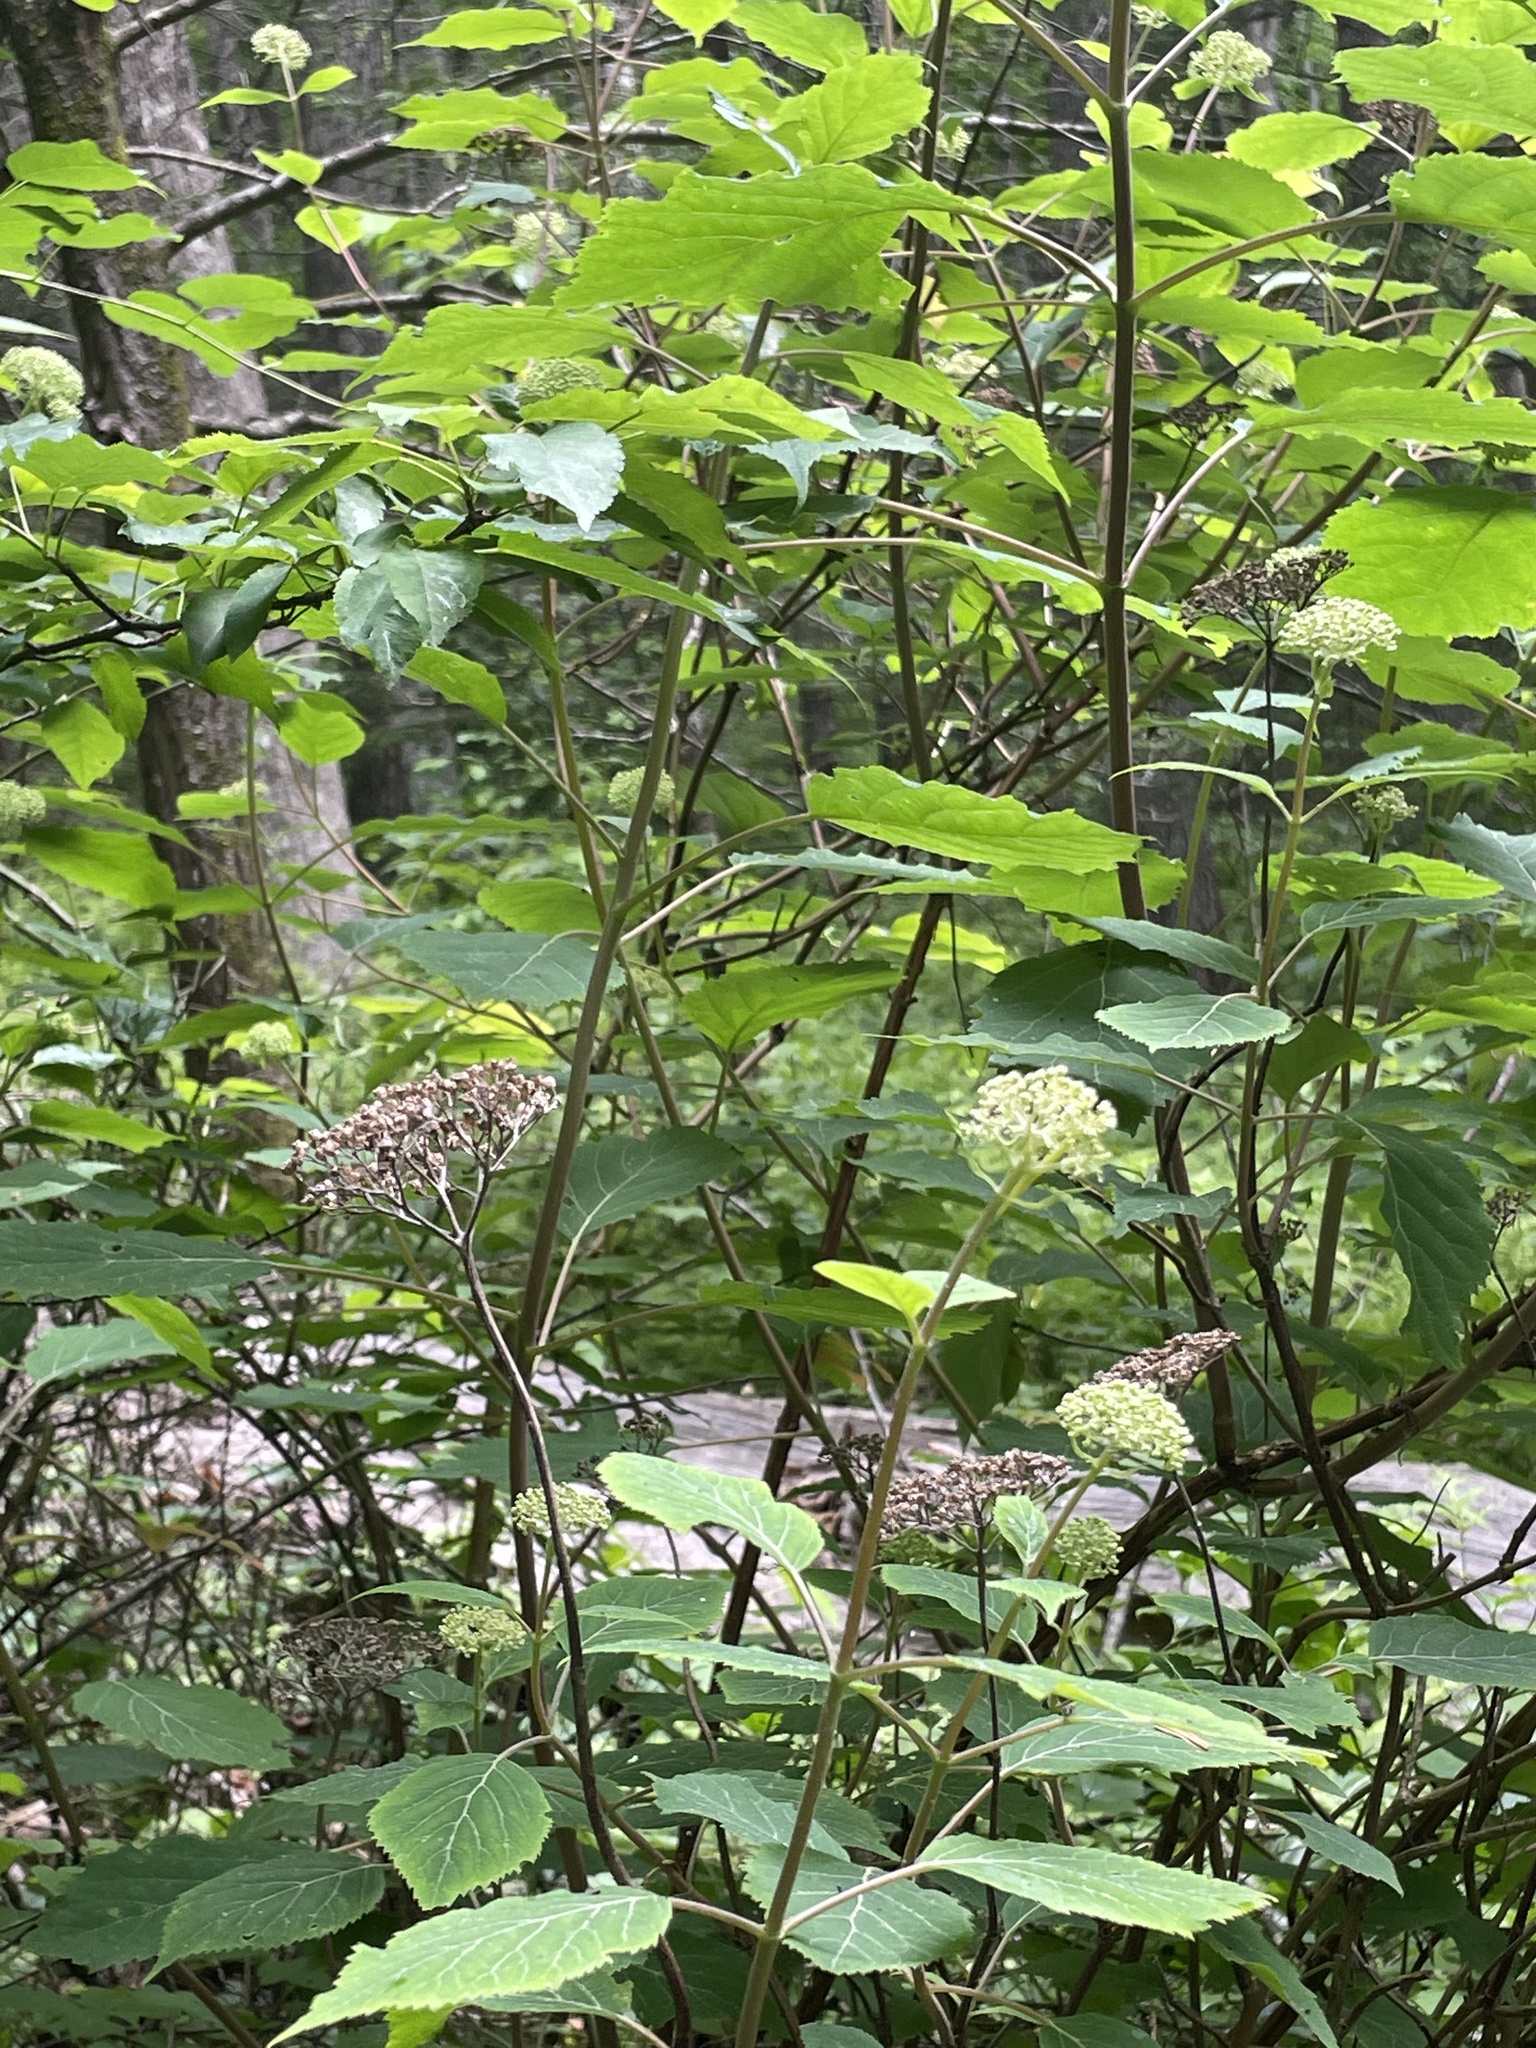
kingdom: Plantae
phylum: Tracheophyta
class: Magnoliopsida
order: Cornales
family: Hydrangeaceae
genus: Hydrangea
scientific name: Hydrangea arborescens
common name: Sevenbark
